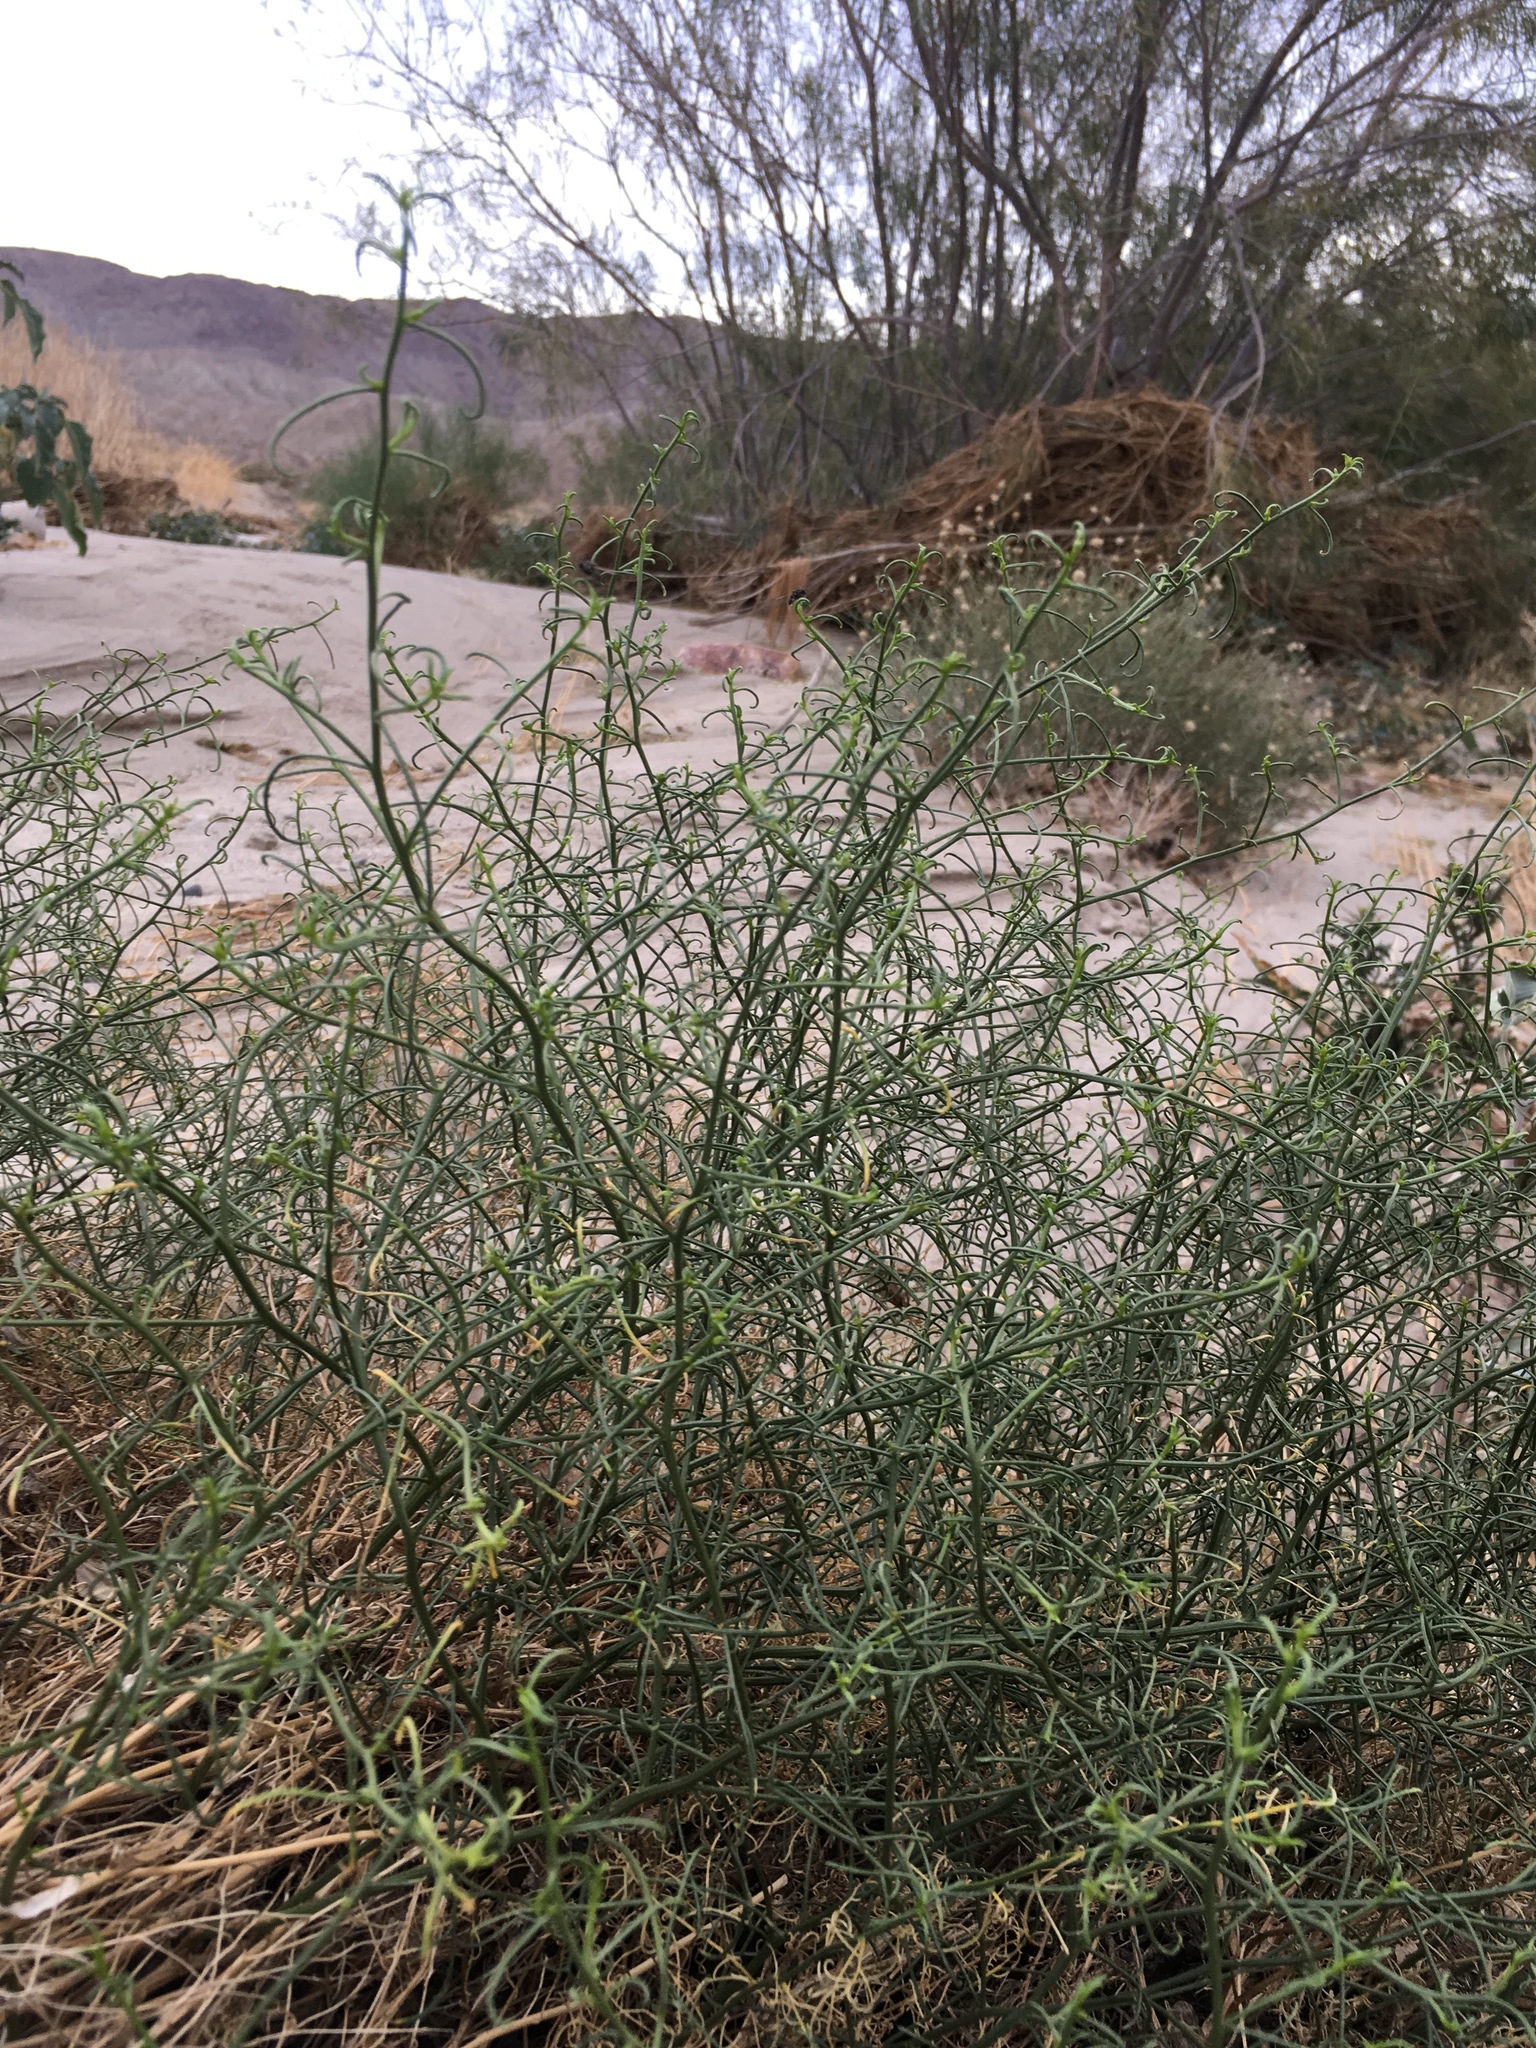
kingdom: Plantae
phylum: Tracheophyta
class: Magnoliopsida
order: Asterales
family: Asteraceae
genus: Ambrosia
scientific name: Ambrosia salsola
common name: Burrobrush
